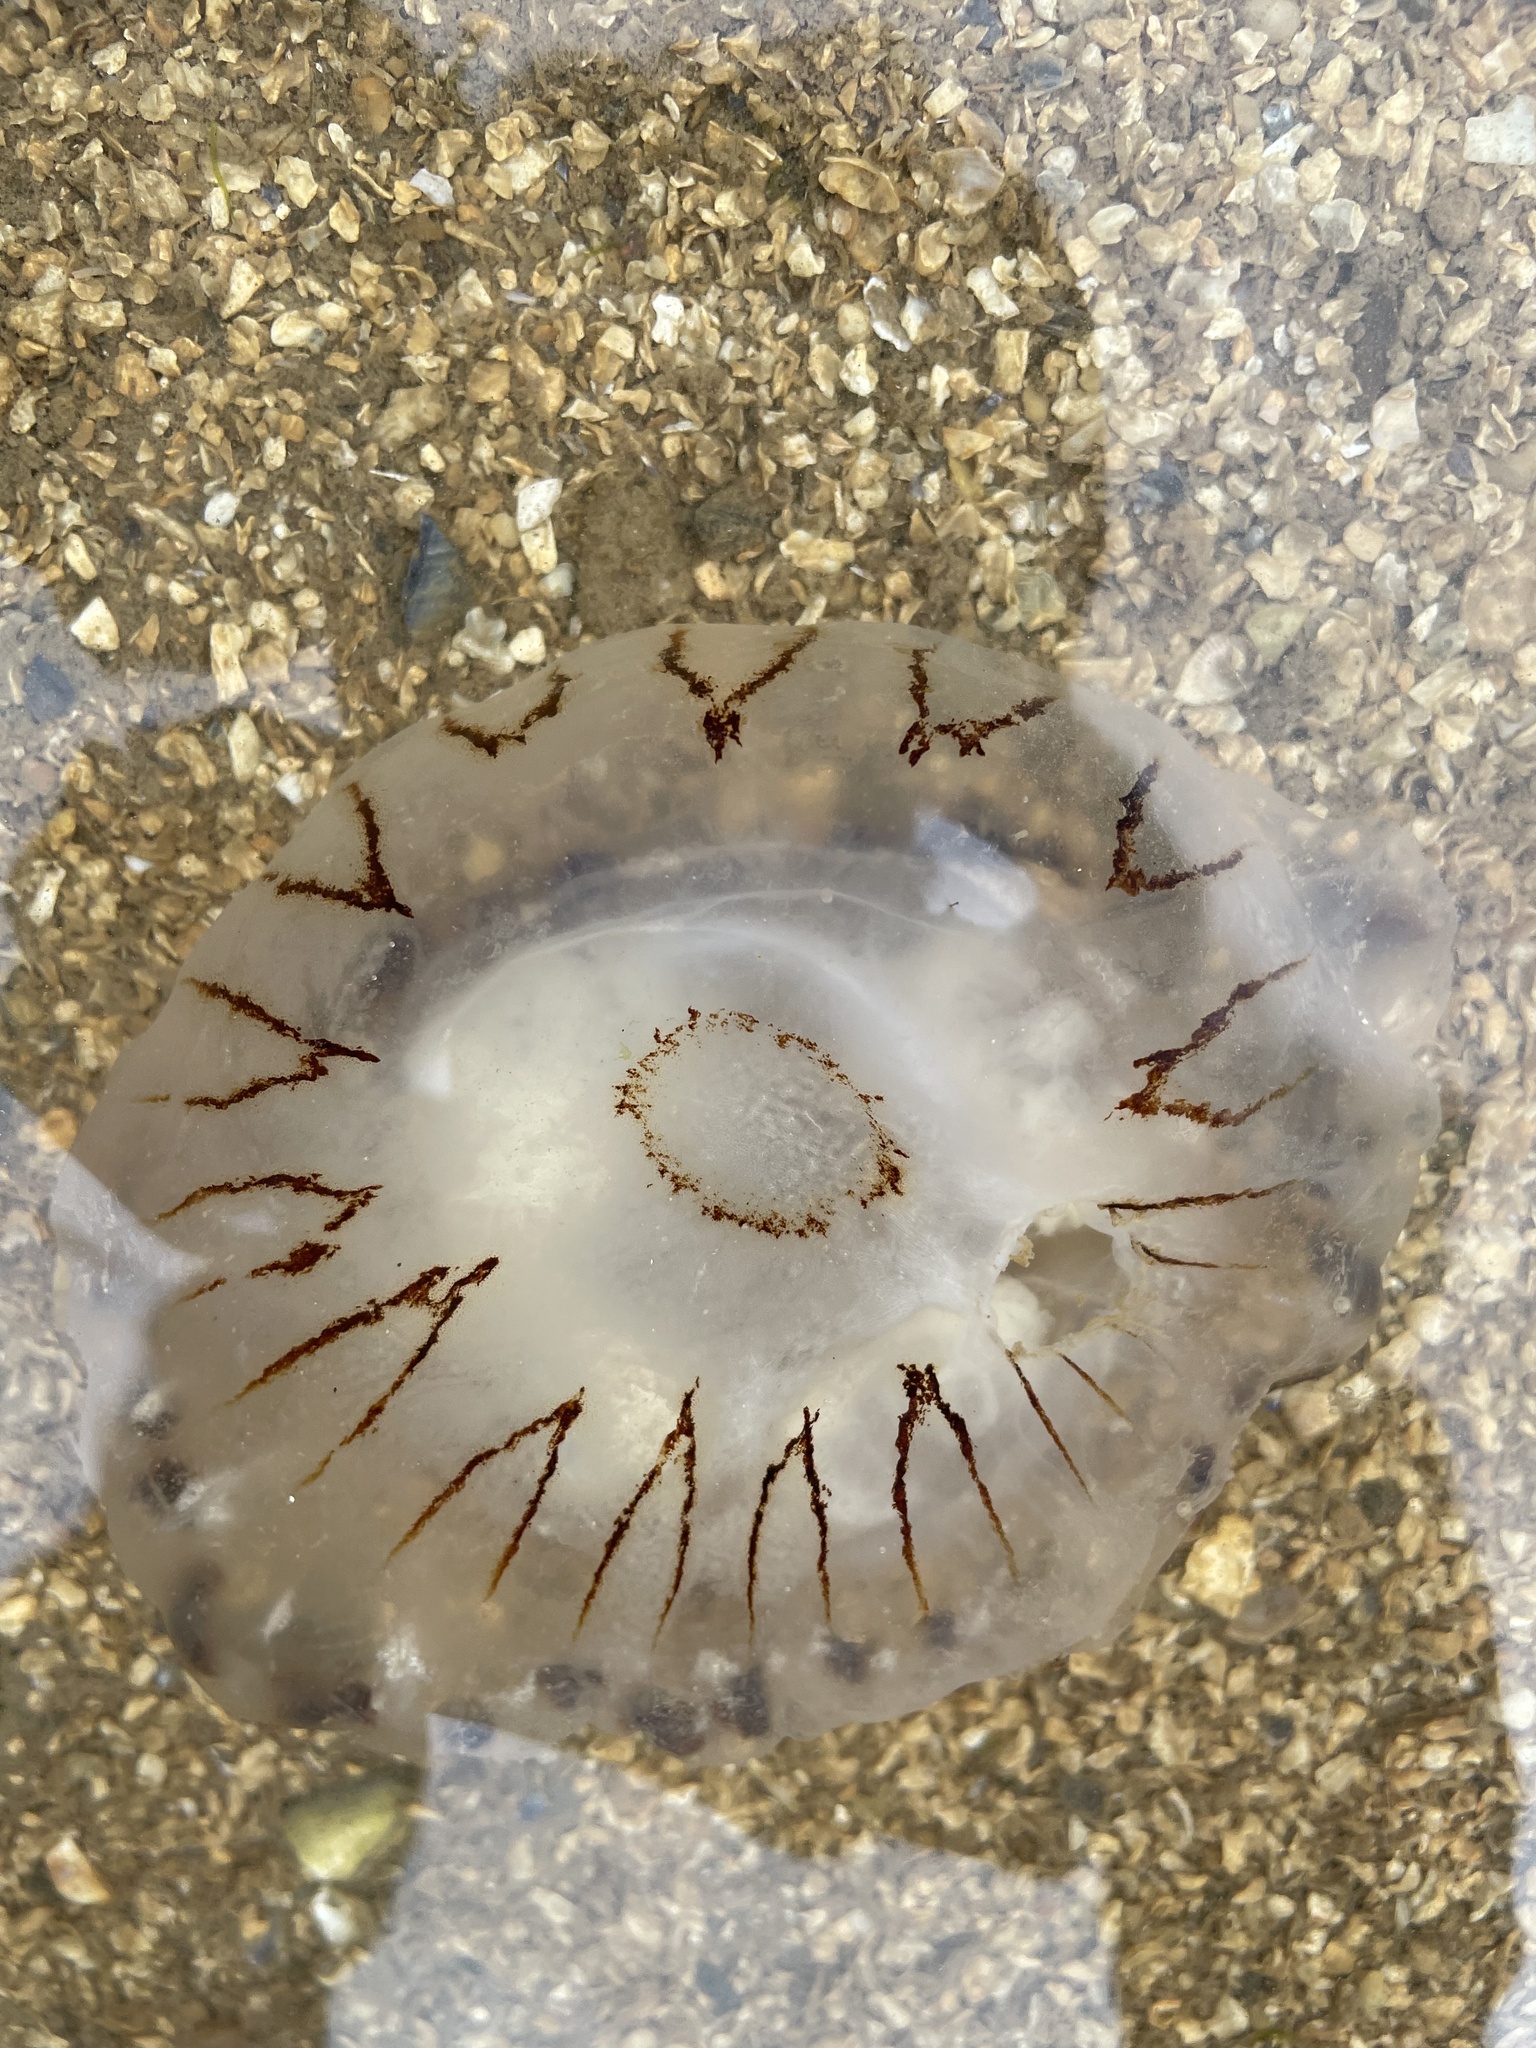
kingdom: Animalia
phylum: Cnidaria
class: Scyphozoa
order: Semaeostomeae
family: Pelagiidae
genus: Chrysaora
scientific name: Chrysaora hysoscella
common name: Compass jellyfish
